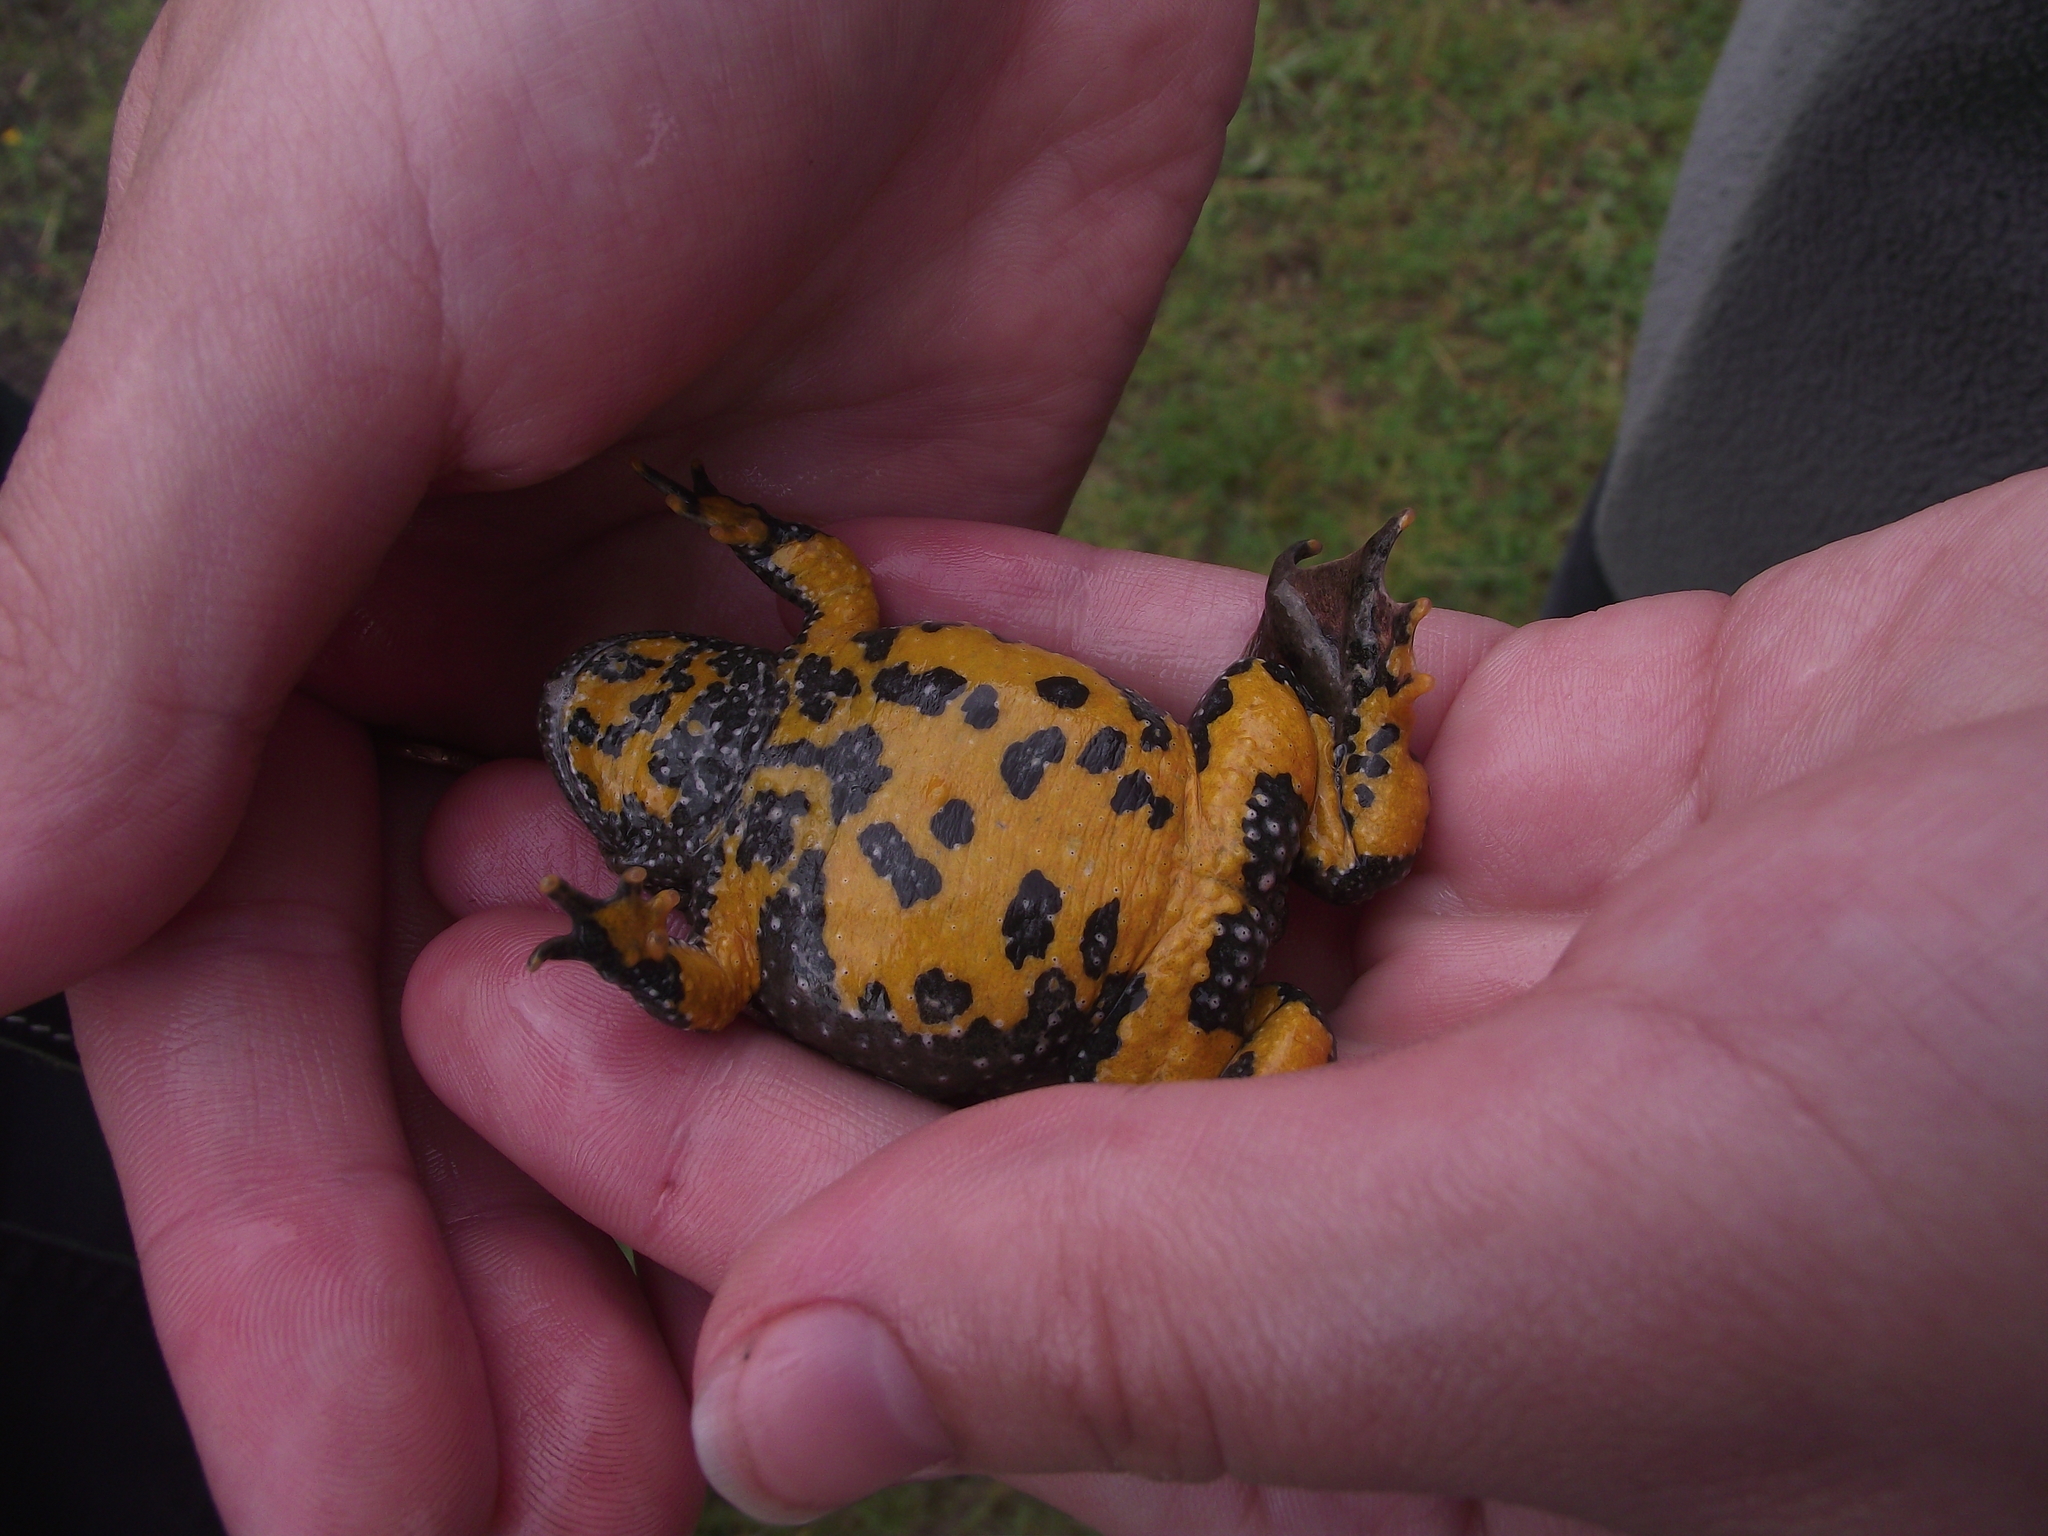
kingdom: Animalia
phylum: Chordata
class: Amphibia
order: Anura
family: Bombinatoridae
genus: Bombina
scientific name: Bombina variegata
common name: Yellow-bellied toad
